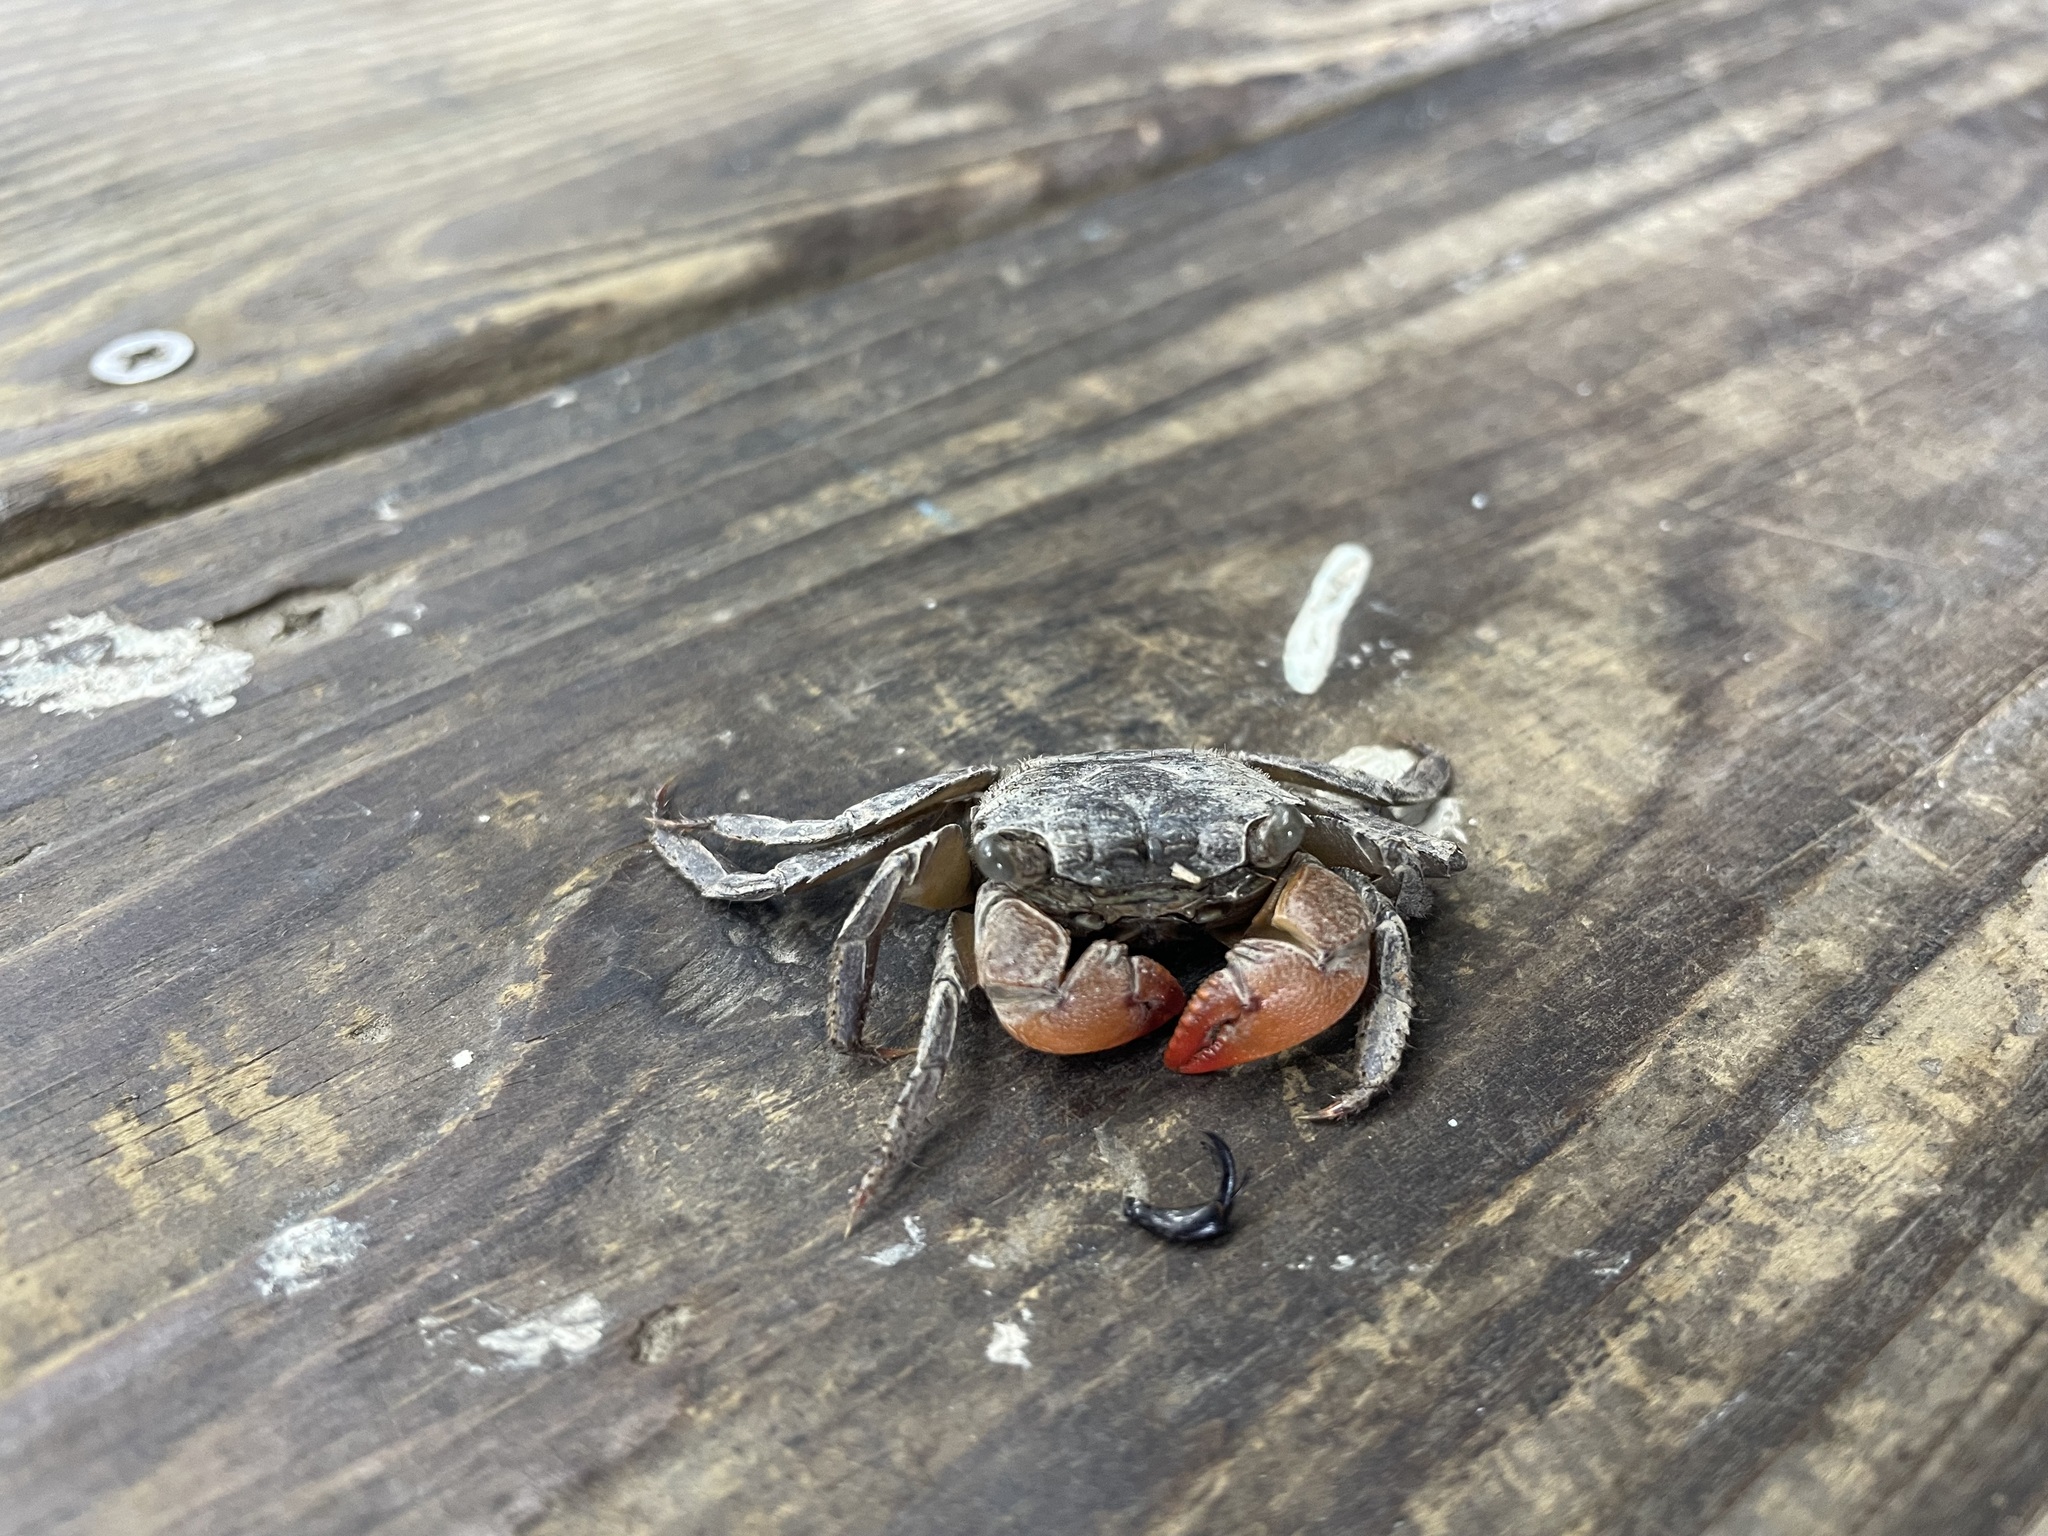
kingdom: Animalia
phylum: Arthropoda
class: Malacostraca
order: Decapoda
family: Sesarmidae
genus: Parasesarma
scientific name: Parasesarma insulare
